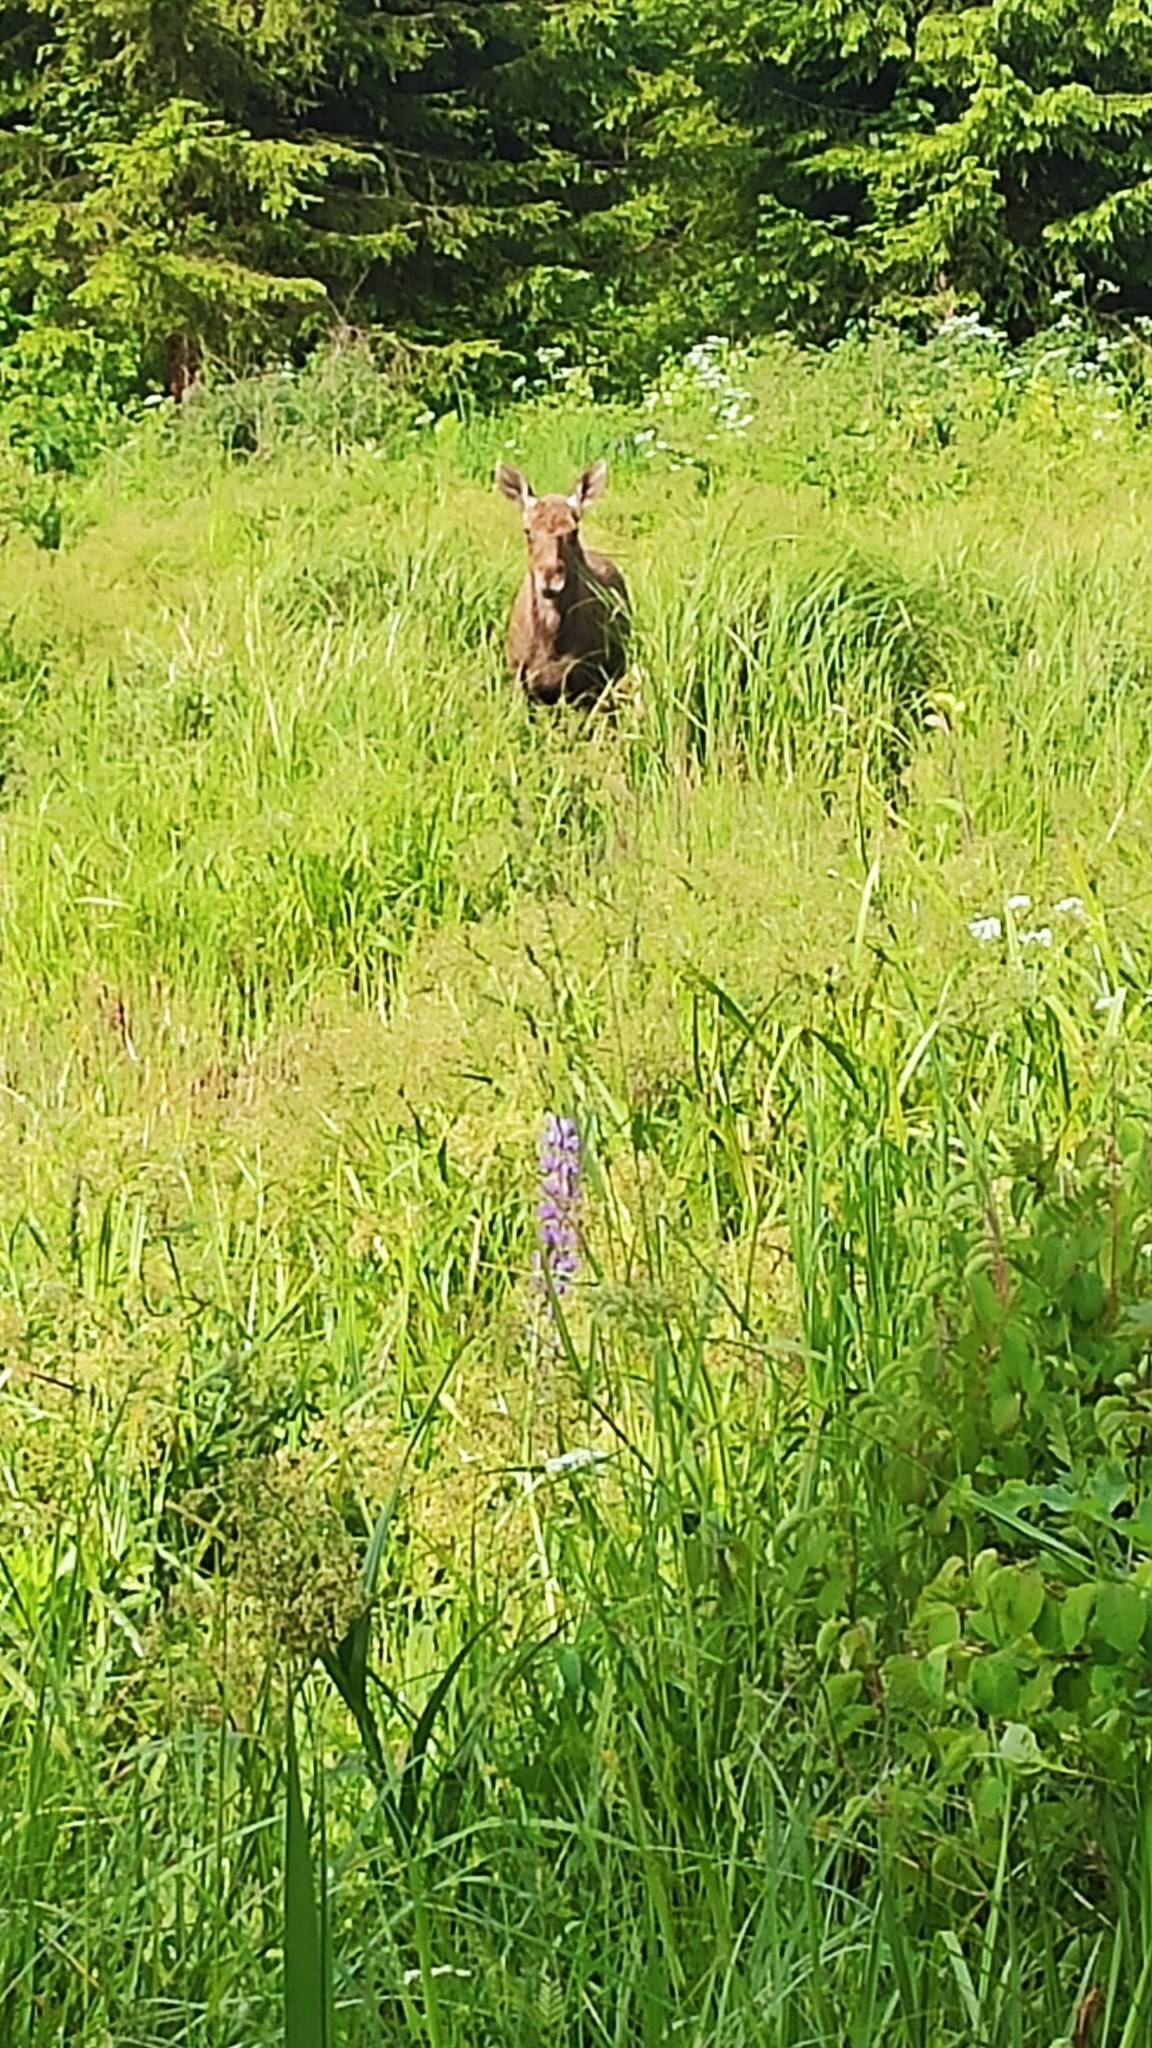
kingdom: Animalia
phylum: Chordata
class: Mammalia
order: Artiodactyla
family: Cervidae
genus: Alces
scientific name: Alces alces
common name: Moose
